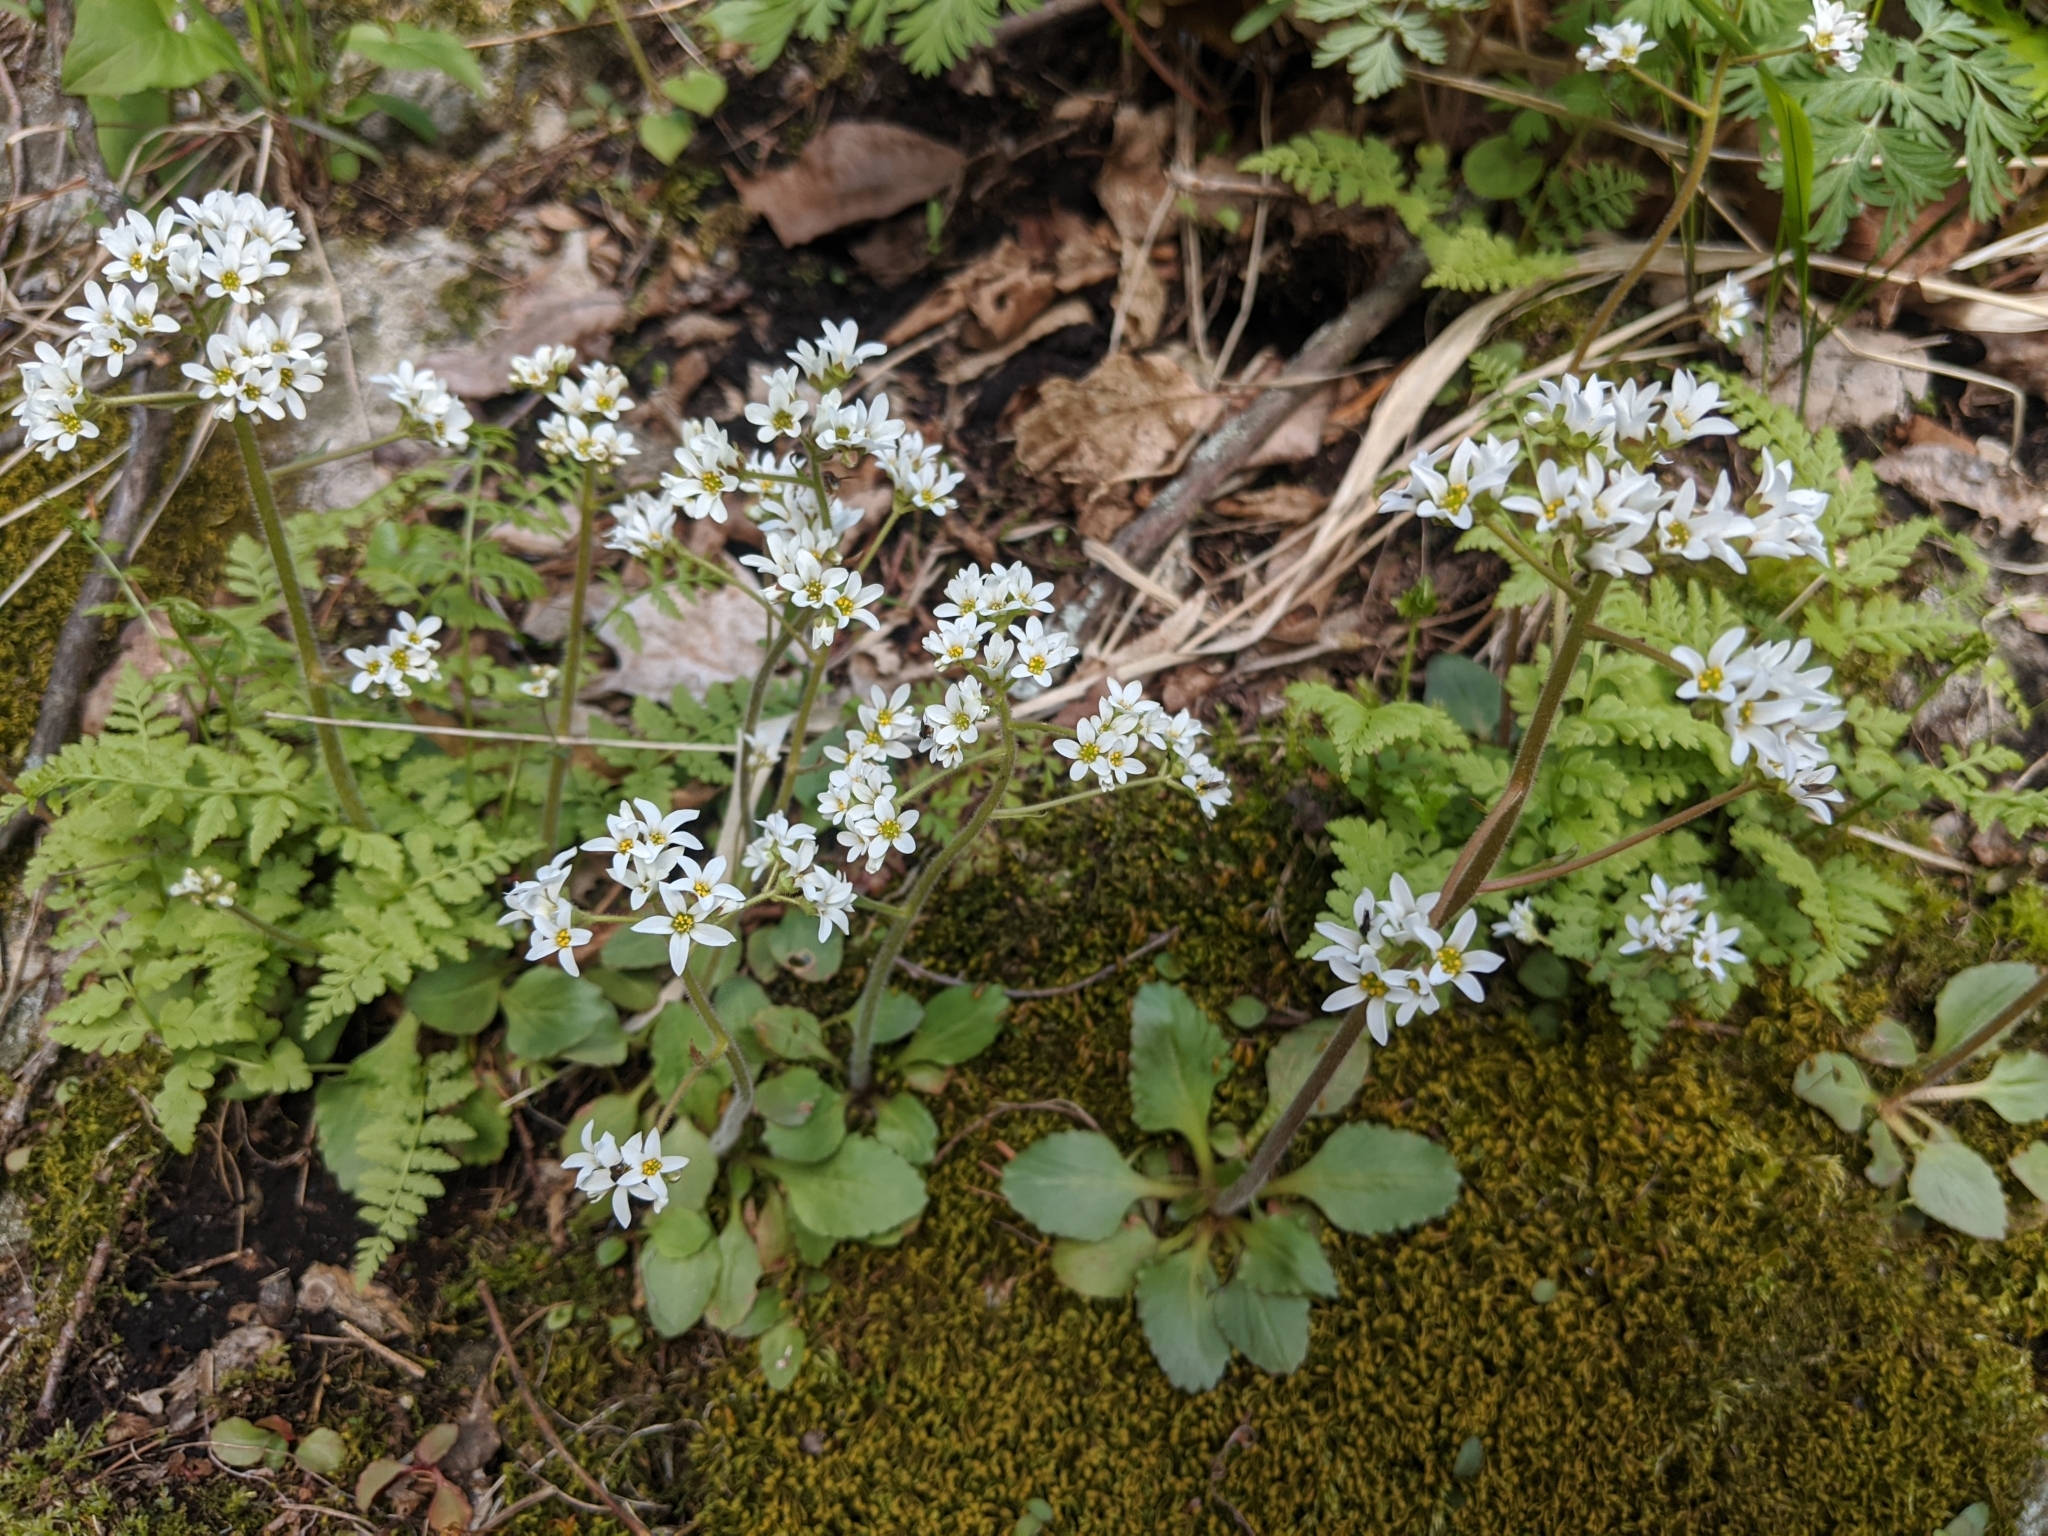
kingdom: Plantae
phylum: Tracheophyta
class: Magnoliopsida
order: Saxifragales
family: Saxifragaceae
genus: Micranthes
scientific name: Micranthes virginiensis
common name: Early saxifrage
